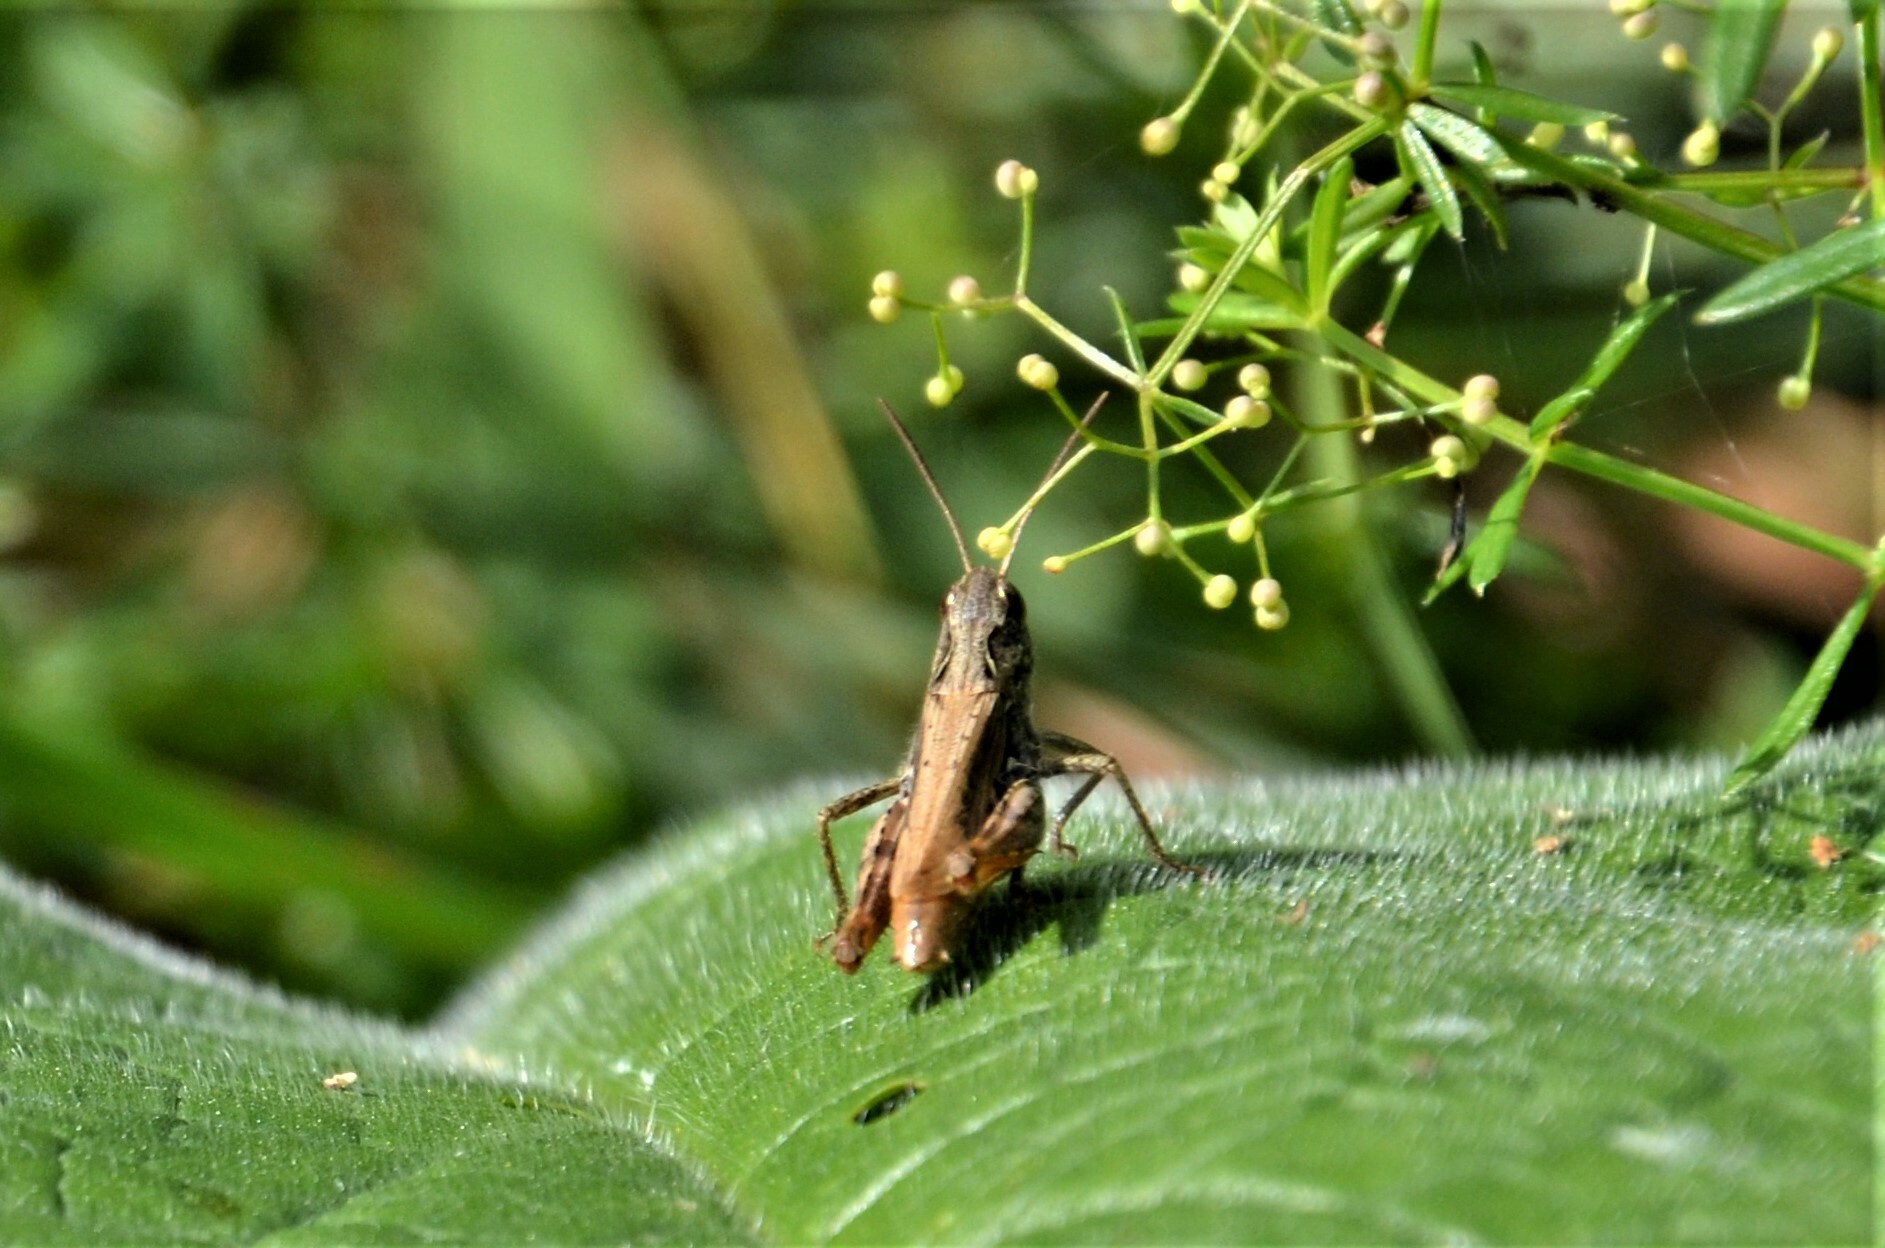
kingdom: Animalia
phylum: Arthropoda
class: Insecta
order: Orthoptera
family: Acrididae
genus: Chorthippus
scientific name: Chorthippus apricarius
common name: Upland field grasshopper
